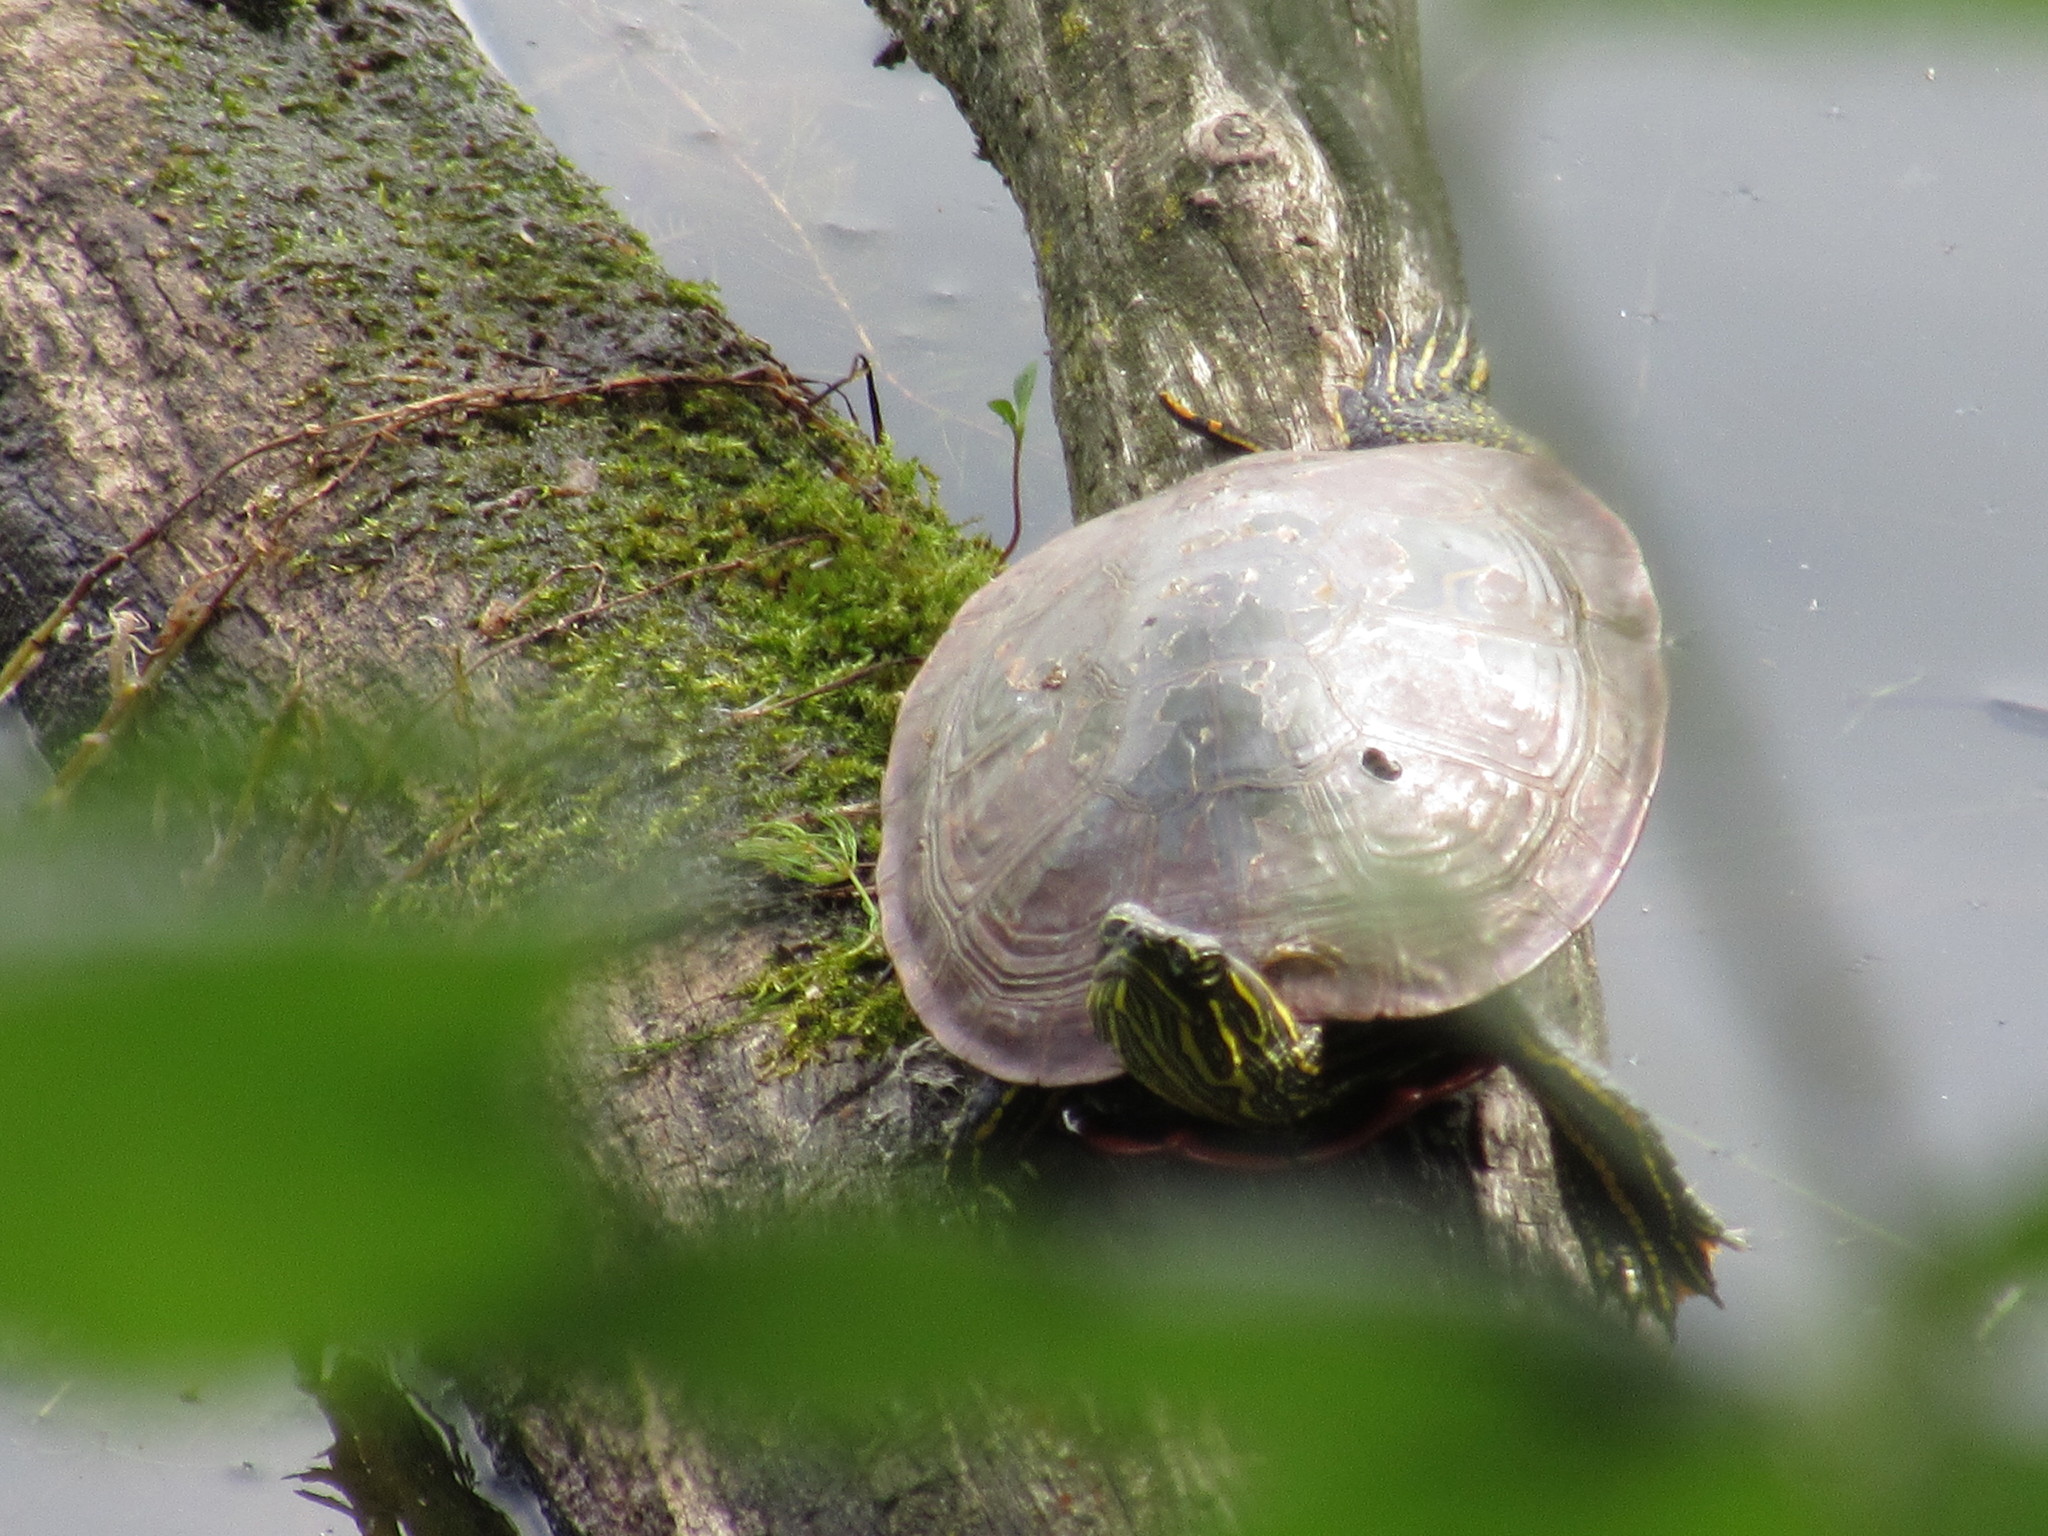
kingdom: Animalia
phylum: Chordata
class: Testudines
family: Emydidae
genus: Chrysemys
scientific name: Chrysemys picta
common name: Painted turtle
